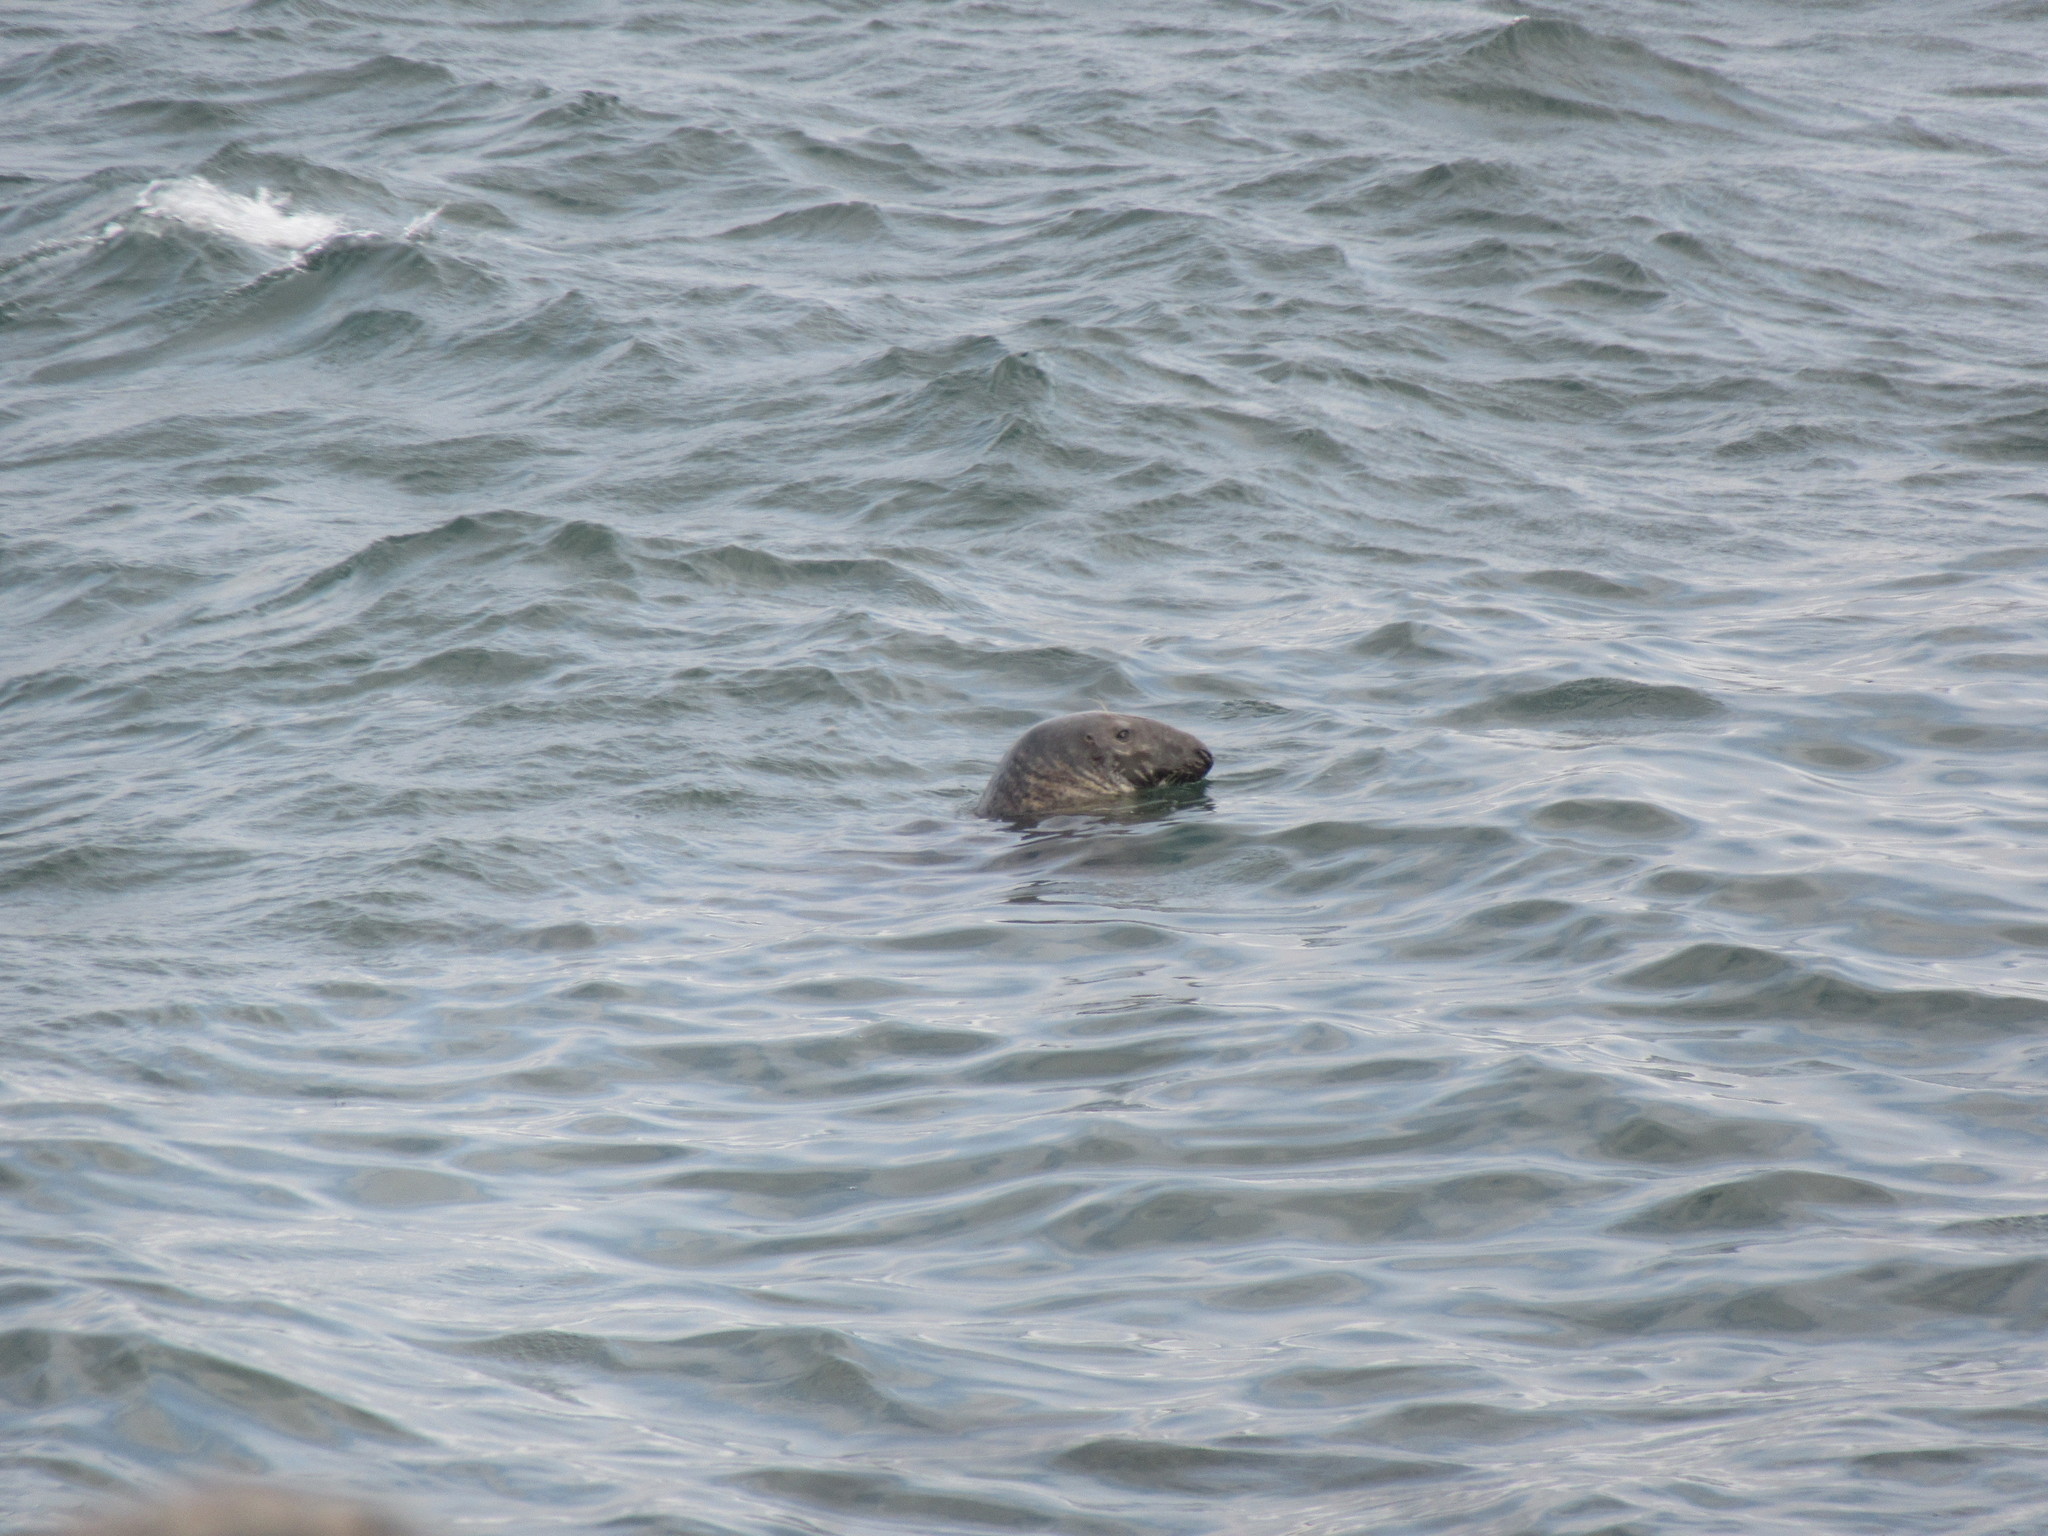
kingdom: Animalia
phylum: Chordata
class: Mammalia
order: Carnivora
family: Phocidae
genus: Halichoerus
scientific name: Halichoerus grypus
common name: Grey seal
